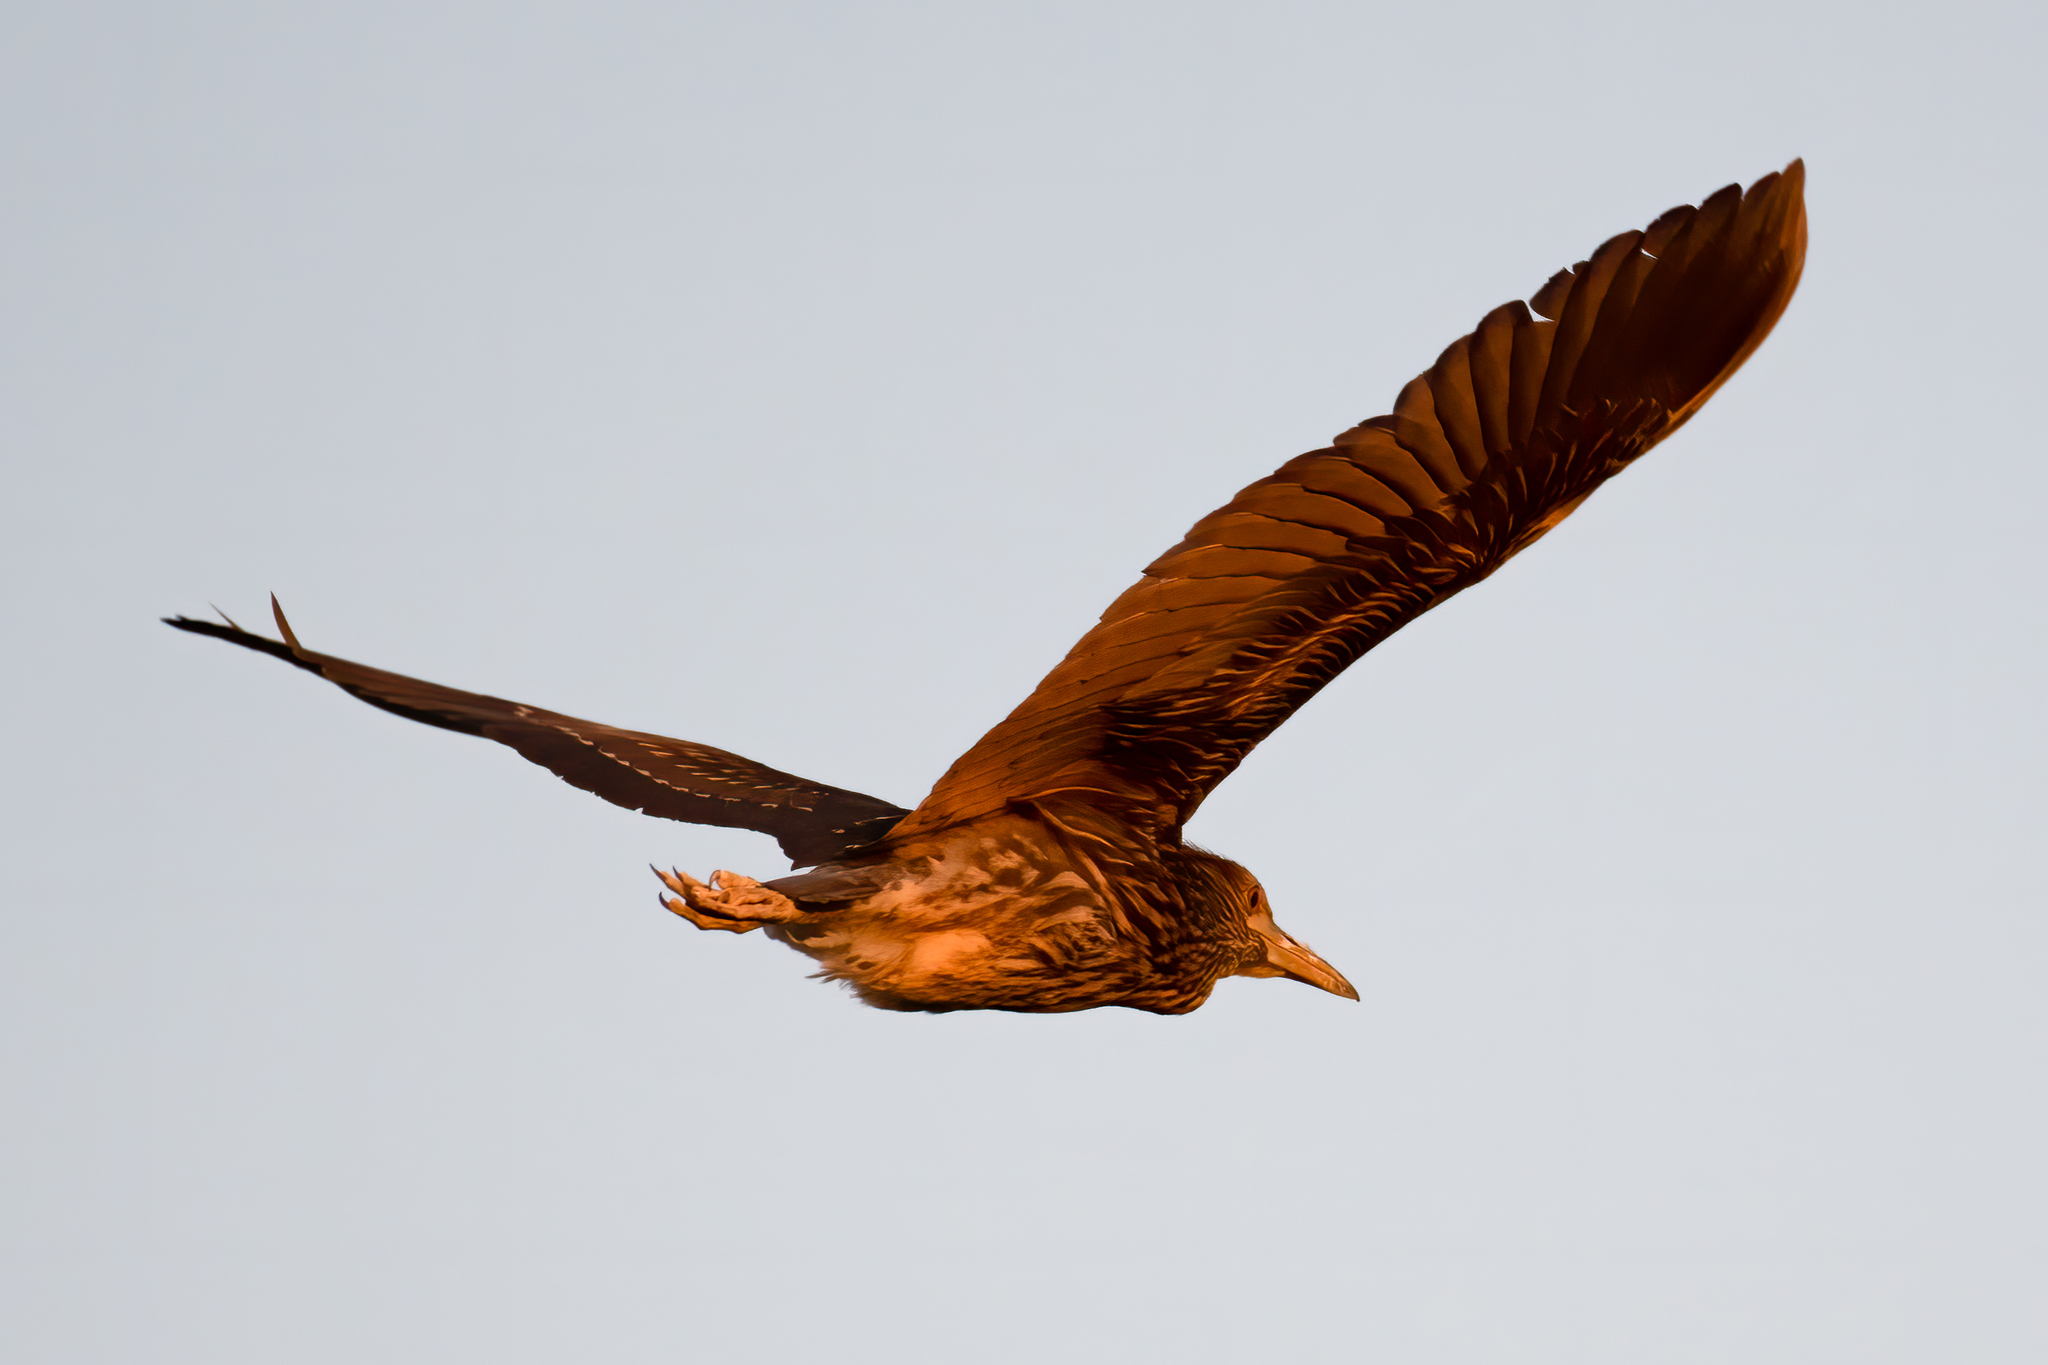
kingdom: Animalia
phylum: Chordata
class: Aves
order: Pelecaniformes
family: Ardeidae
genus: Nycticorax
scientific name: Nycticorax nycticorax
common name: Black-crowned night heron
